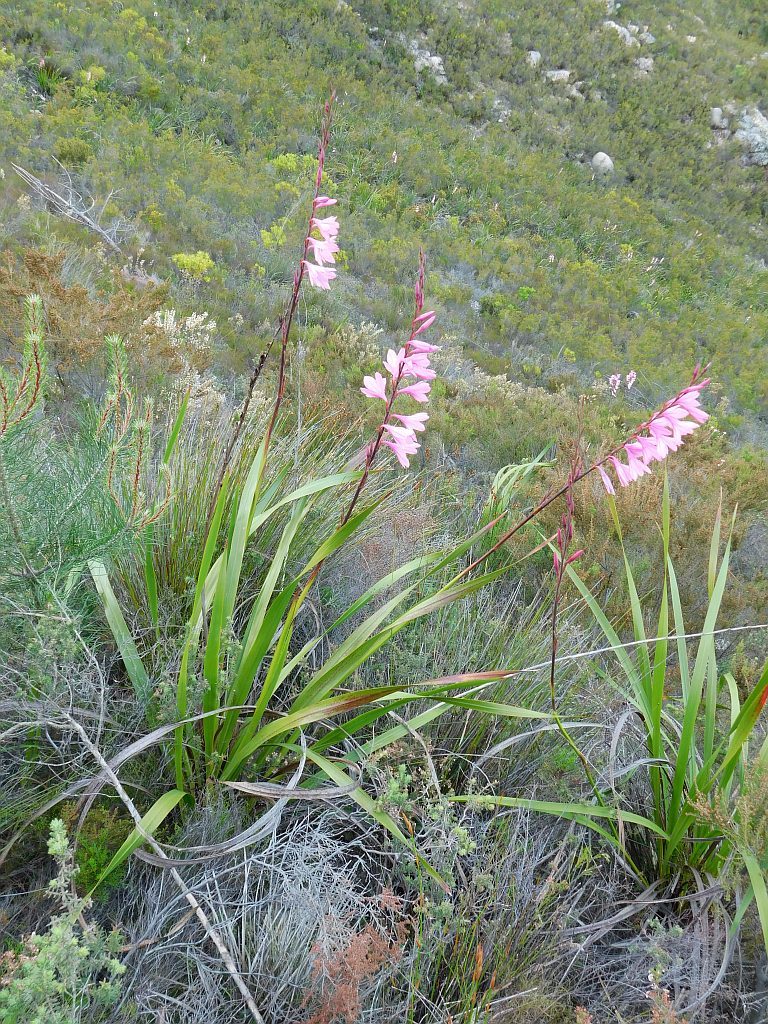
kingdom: Plantae
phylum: Tracheophyta
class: Liliopsida
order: Asparagales
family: Iridaceae
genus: Watsonia
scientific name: Watsonia borbonica
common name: Bugle-lily
